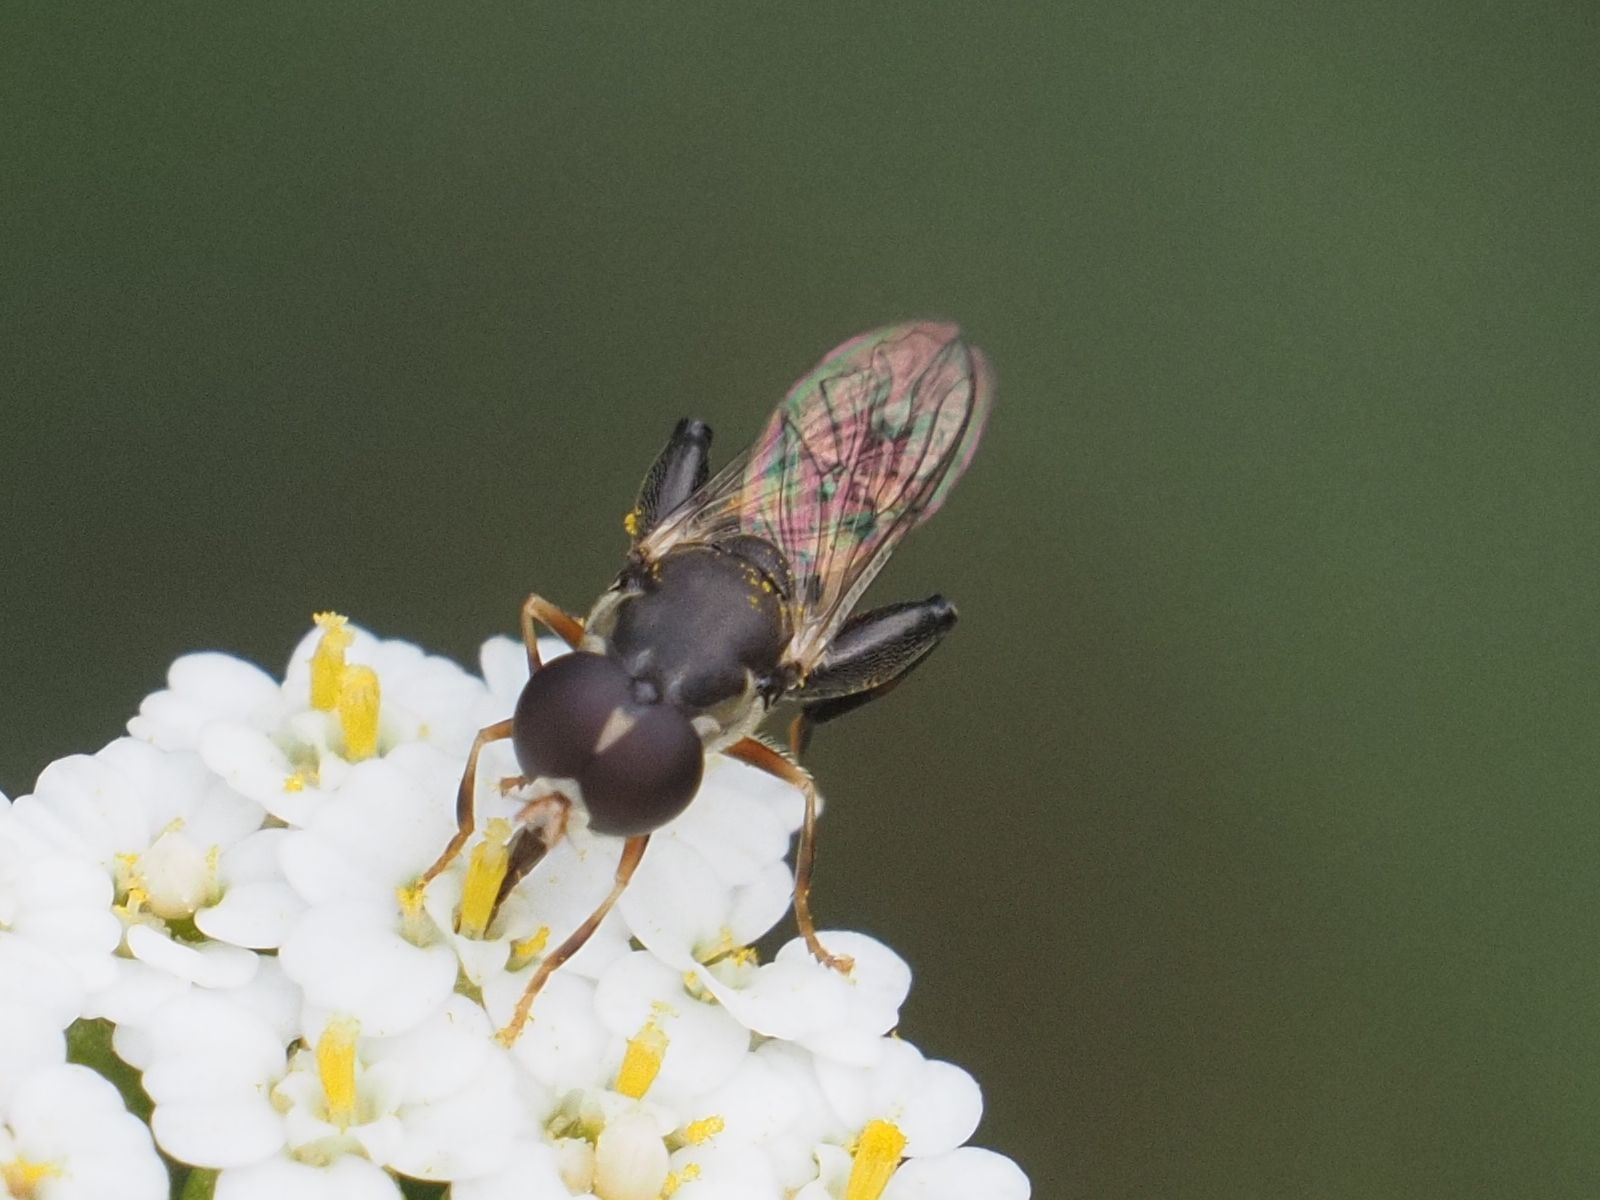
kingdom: Animalia
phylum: Arthropoda
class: Insecta
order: Diptera
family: Syrphidae
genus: Syritta
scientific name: Syritta pipiens
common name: Hover fly
